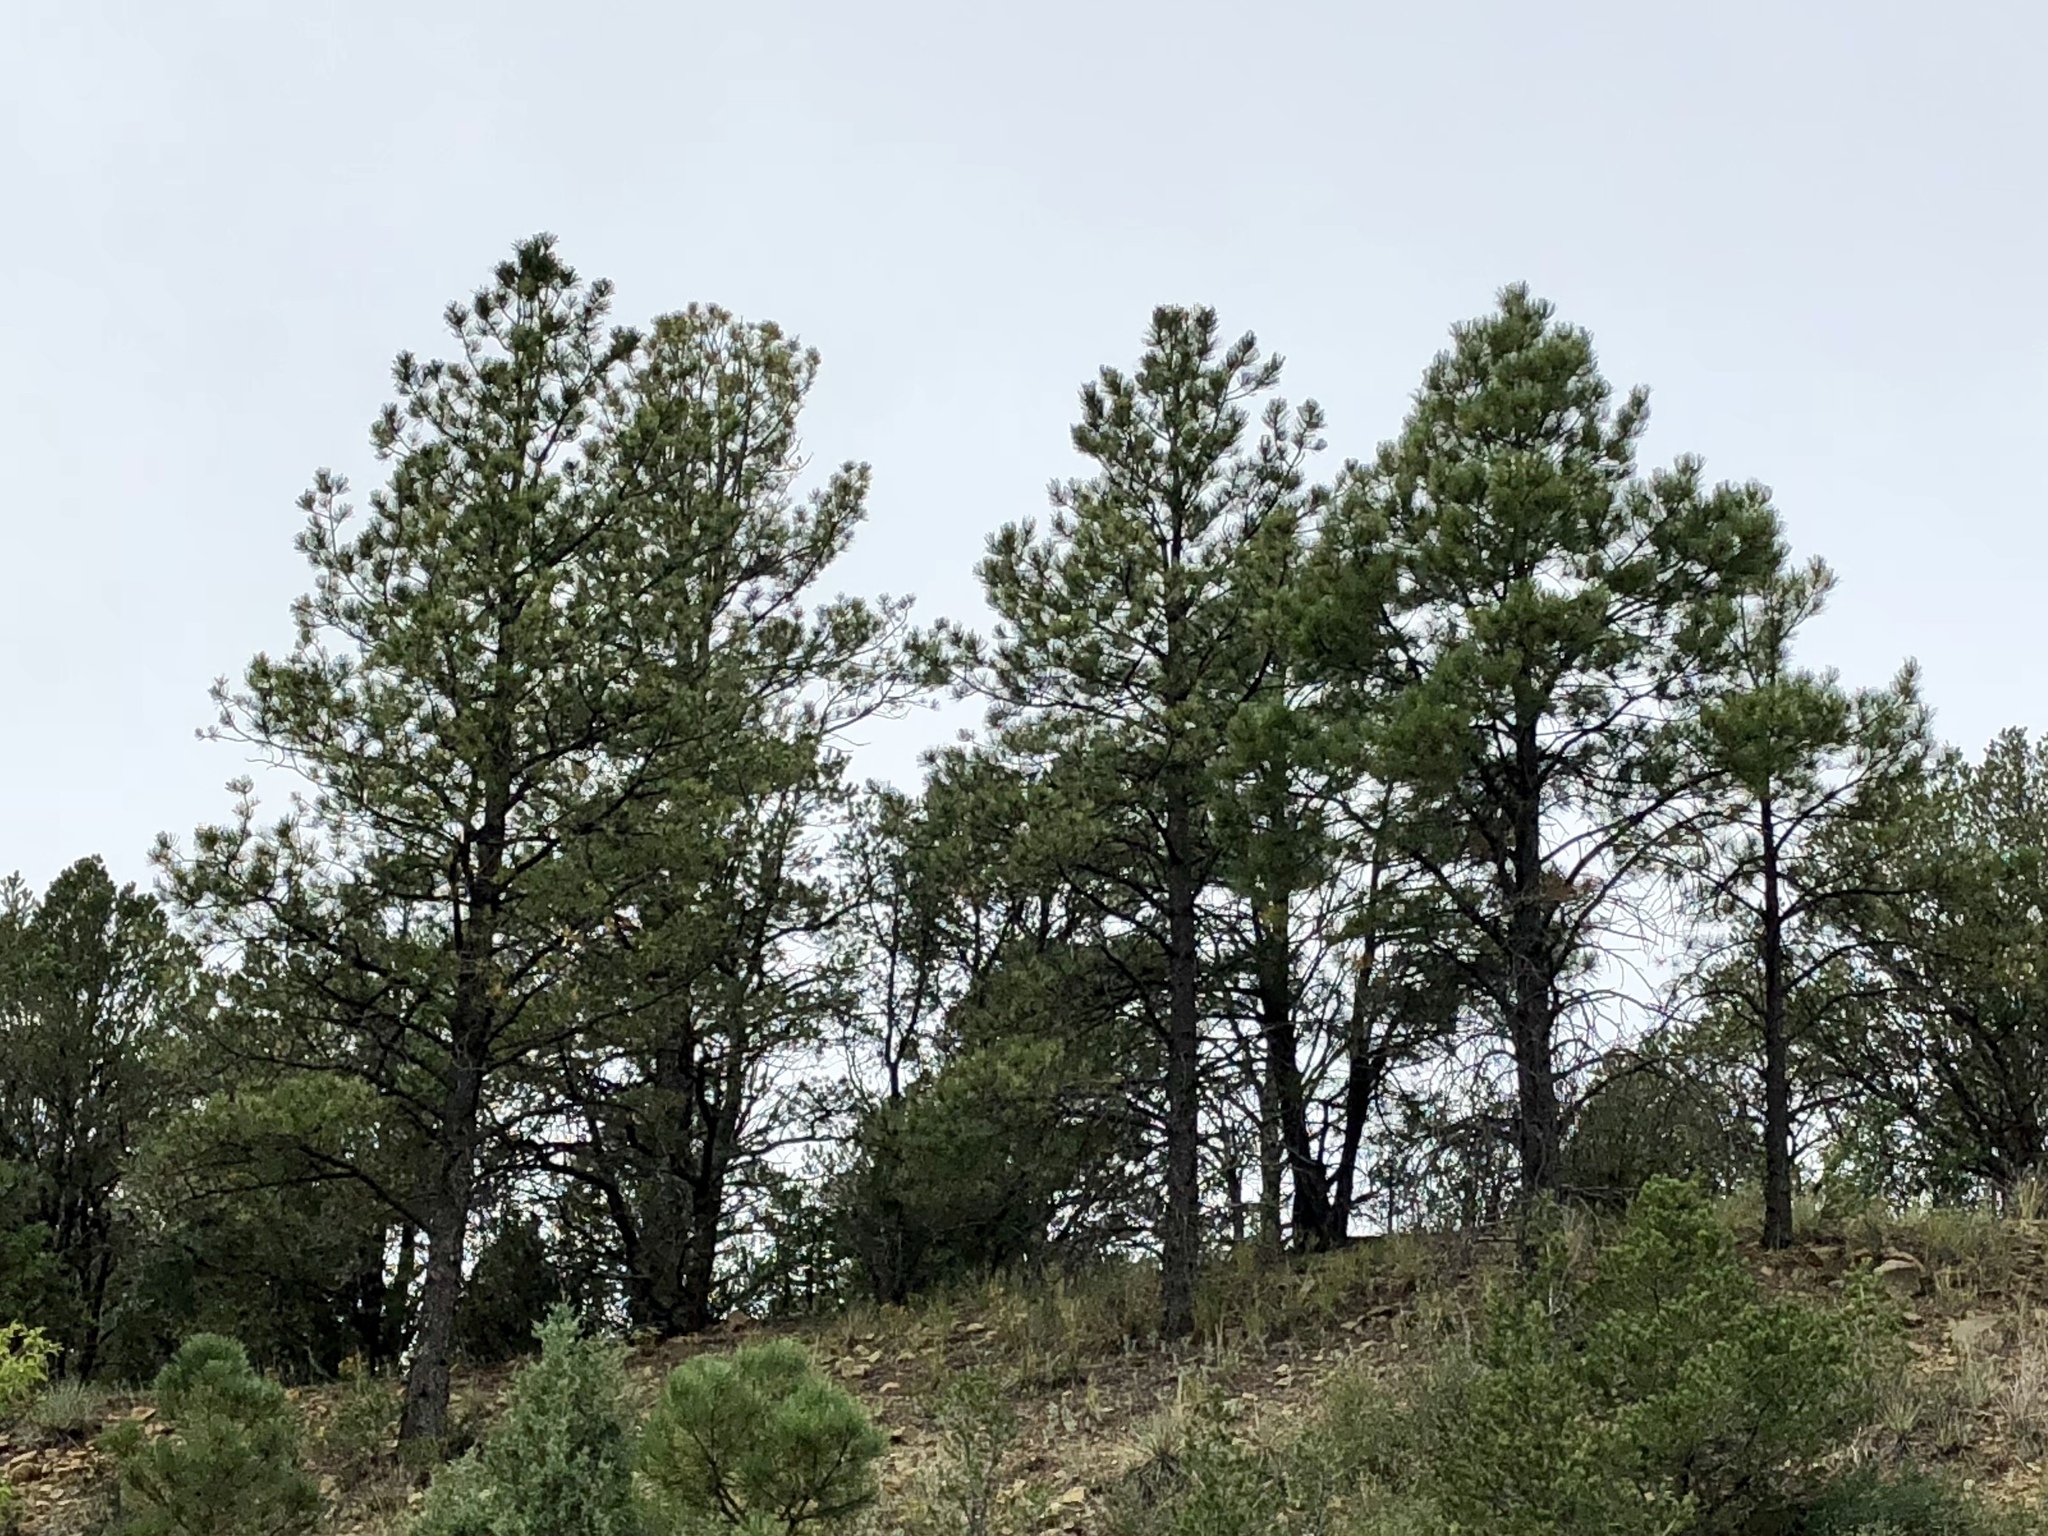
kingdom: Plantae
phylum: Tracheophyta
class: Pinopsida
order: Pinales
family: Pinaceae
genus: Pinus
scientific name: Pinus ponderosa
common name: Western yellow-pine
